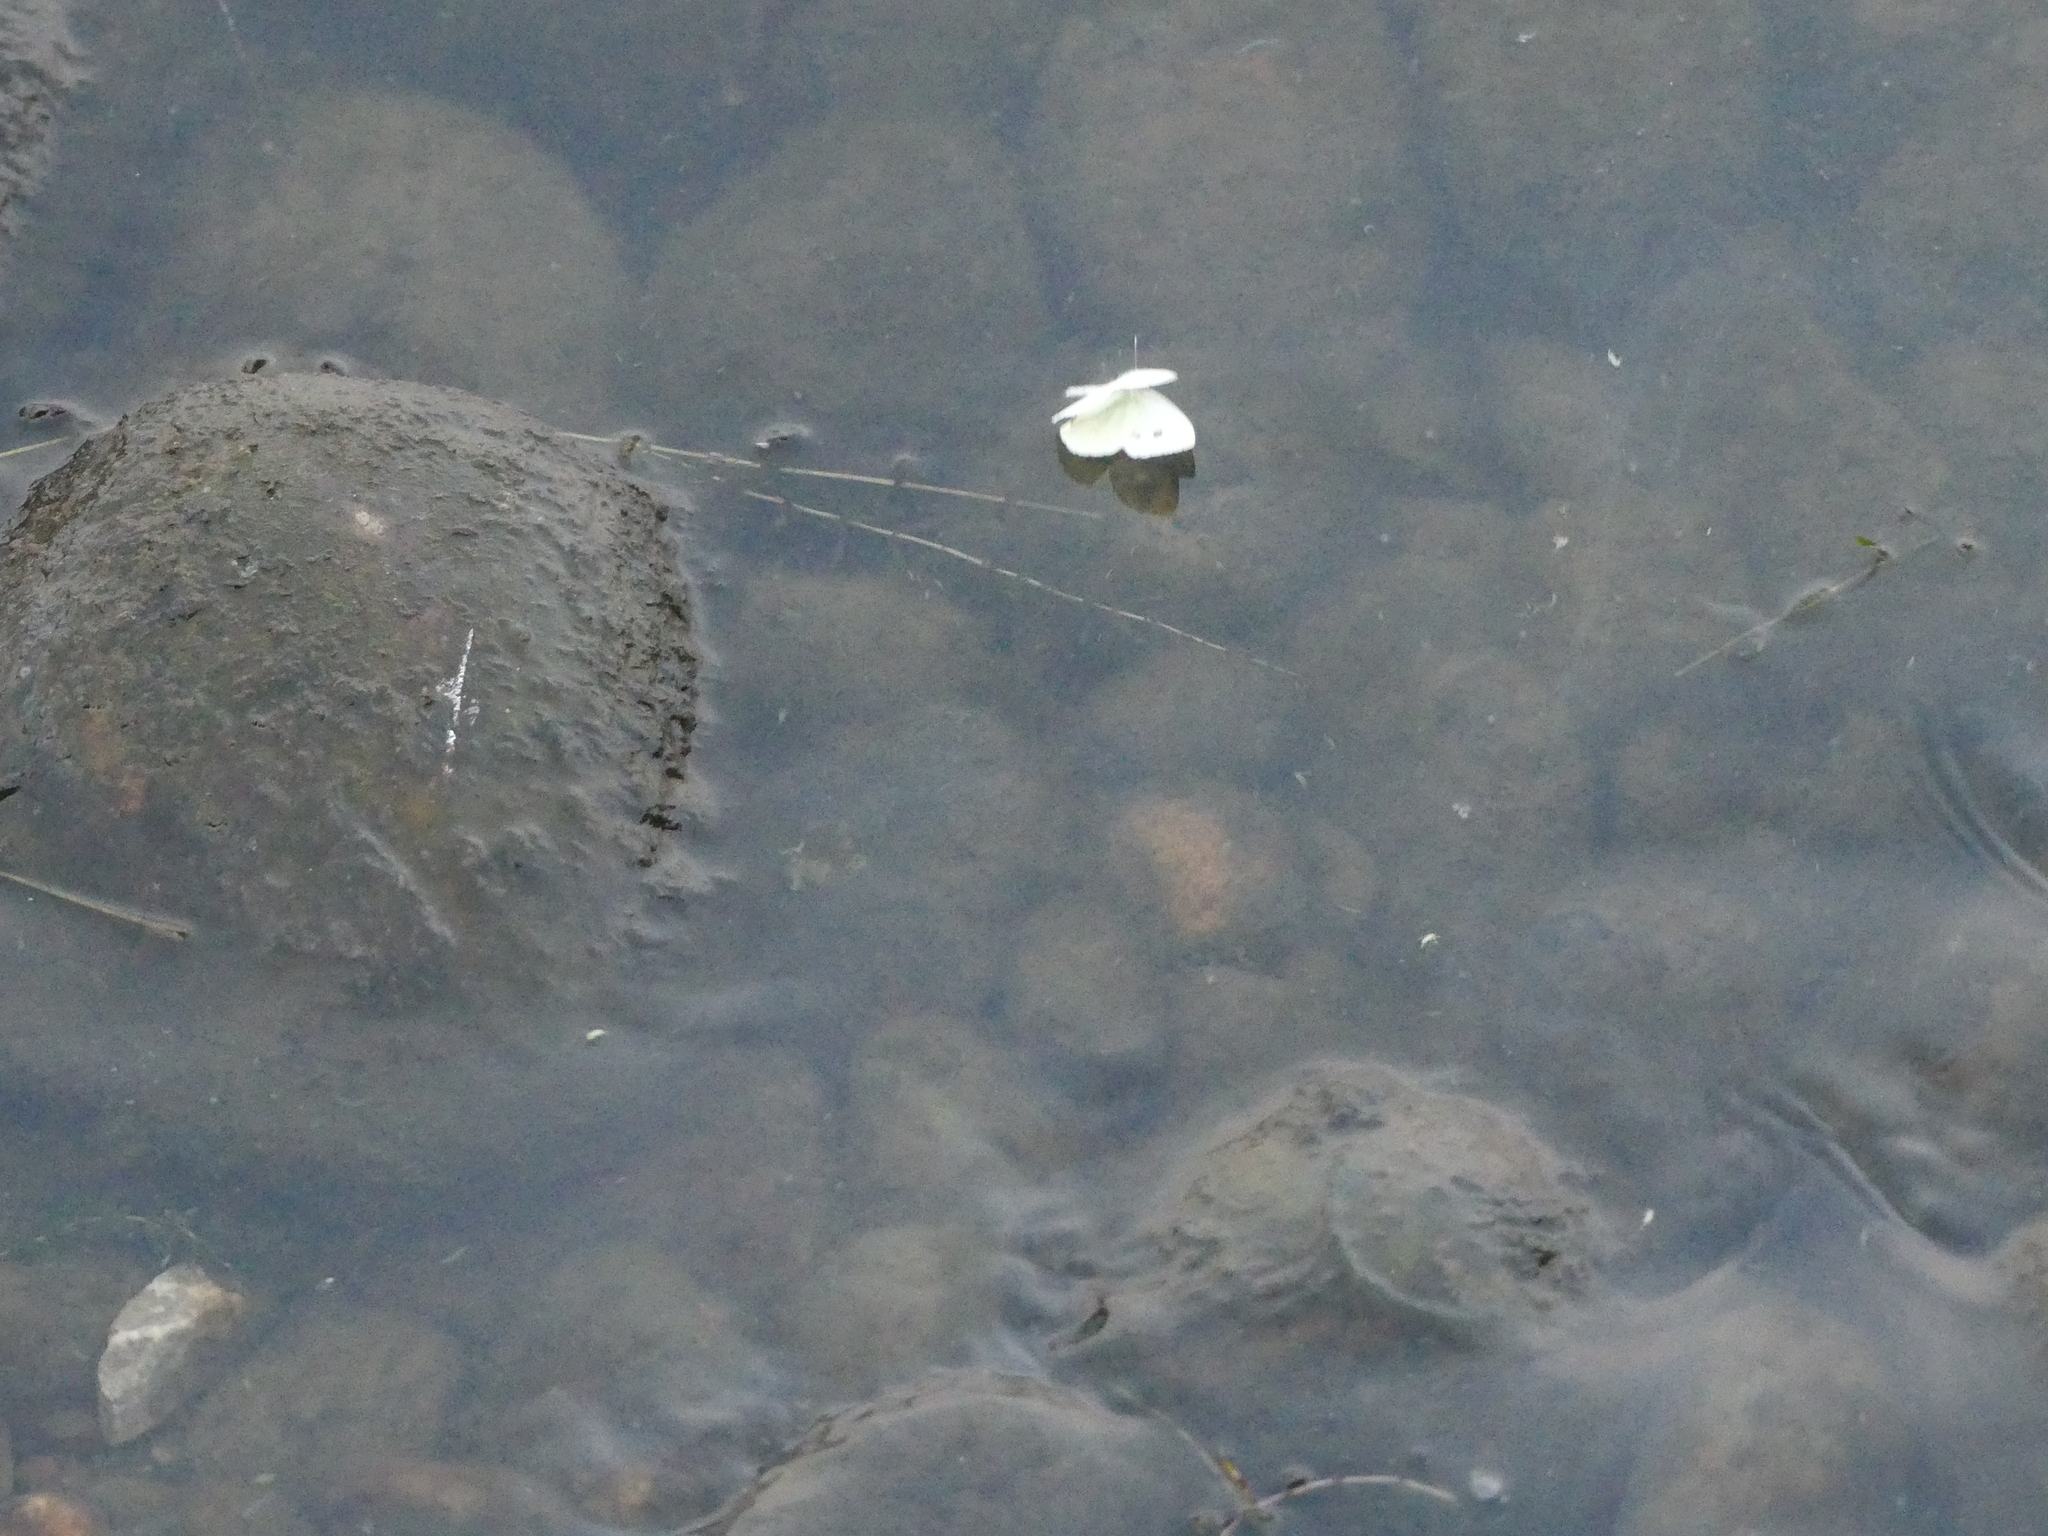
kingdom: Animalia
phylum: Arthropoda
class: Insecta
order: Lepidoptera
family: Pieridae
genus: Pieris
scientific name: Pieris rapae
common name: Small white
